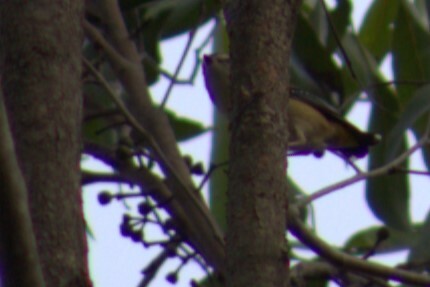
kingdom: Animalia
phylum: Chordata
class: Aves
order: Passeriformes
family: Pardalotidae
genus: Pardalotus
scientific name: Pardalotus punctatus
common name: Spotted pardalote
